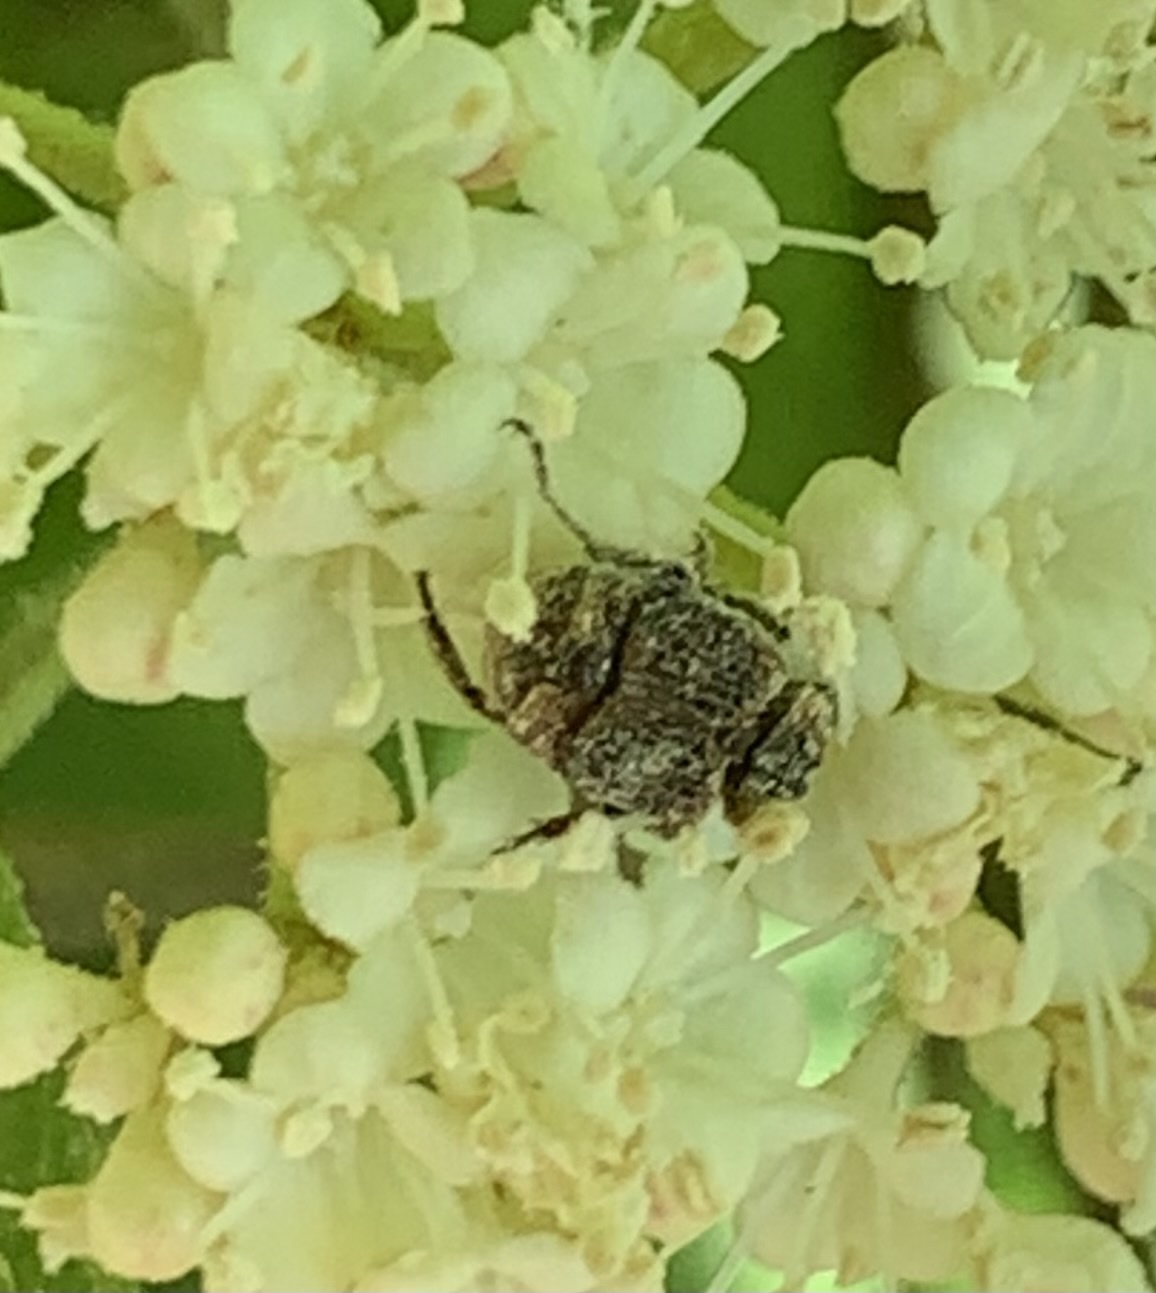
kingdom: Animalia
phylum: Arthropoda
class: Insecta
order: Coleoptera
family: Scarabaeidae
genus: Valgus
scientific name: Valgus canaliculatus
